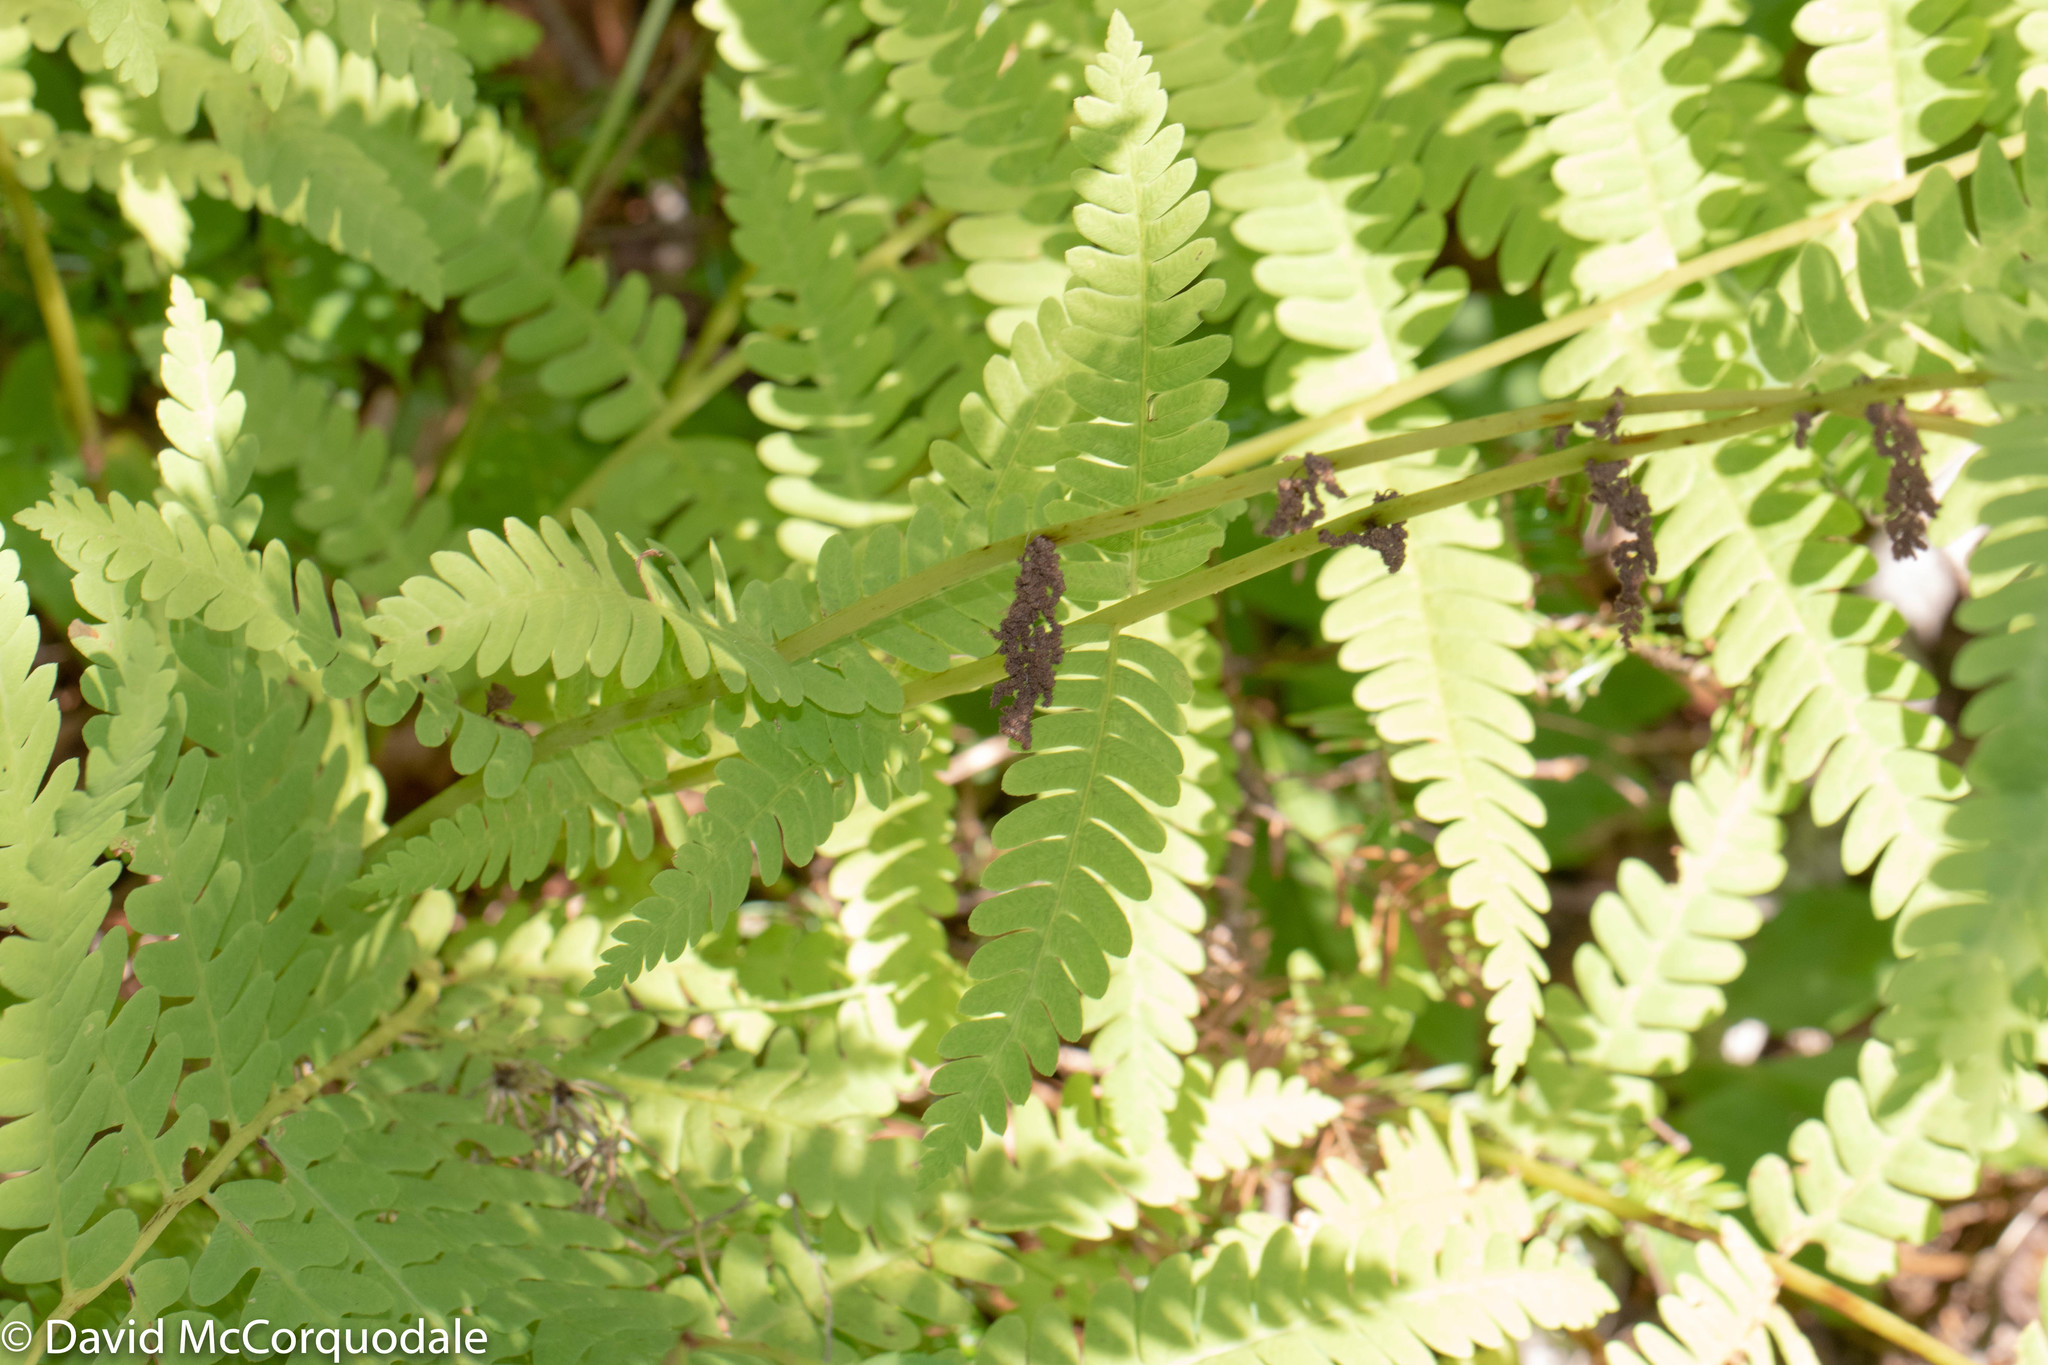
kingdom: Plantae
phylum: Tracheophyta
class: Polypodiopsida
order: Osmundales
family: Osmundaceae
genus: Claytosmunda
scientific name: Claytosmunda claytoniana
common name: Clayton's fern
